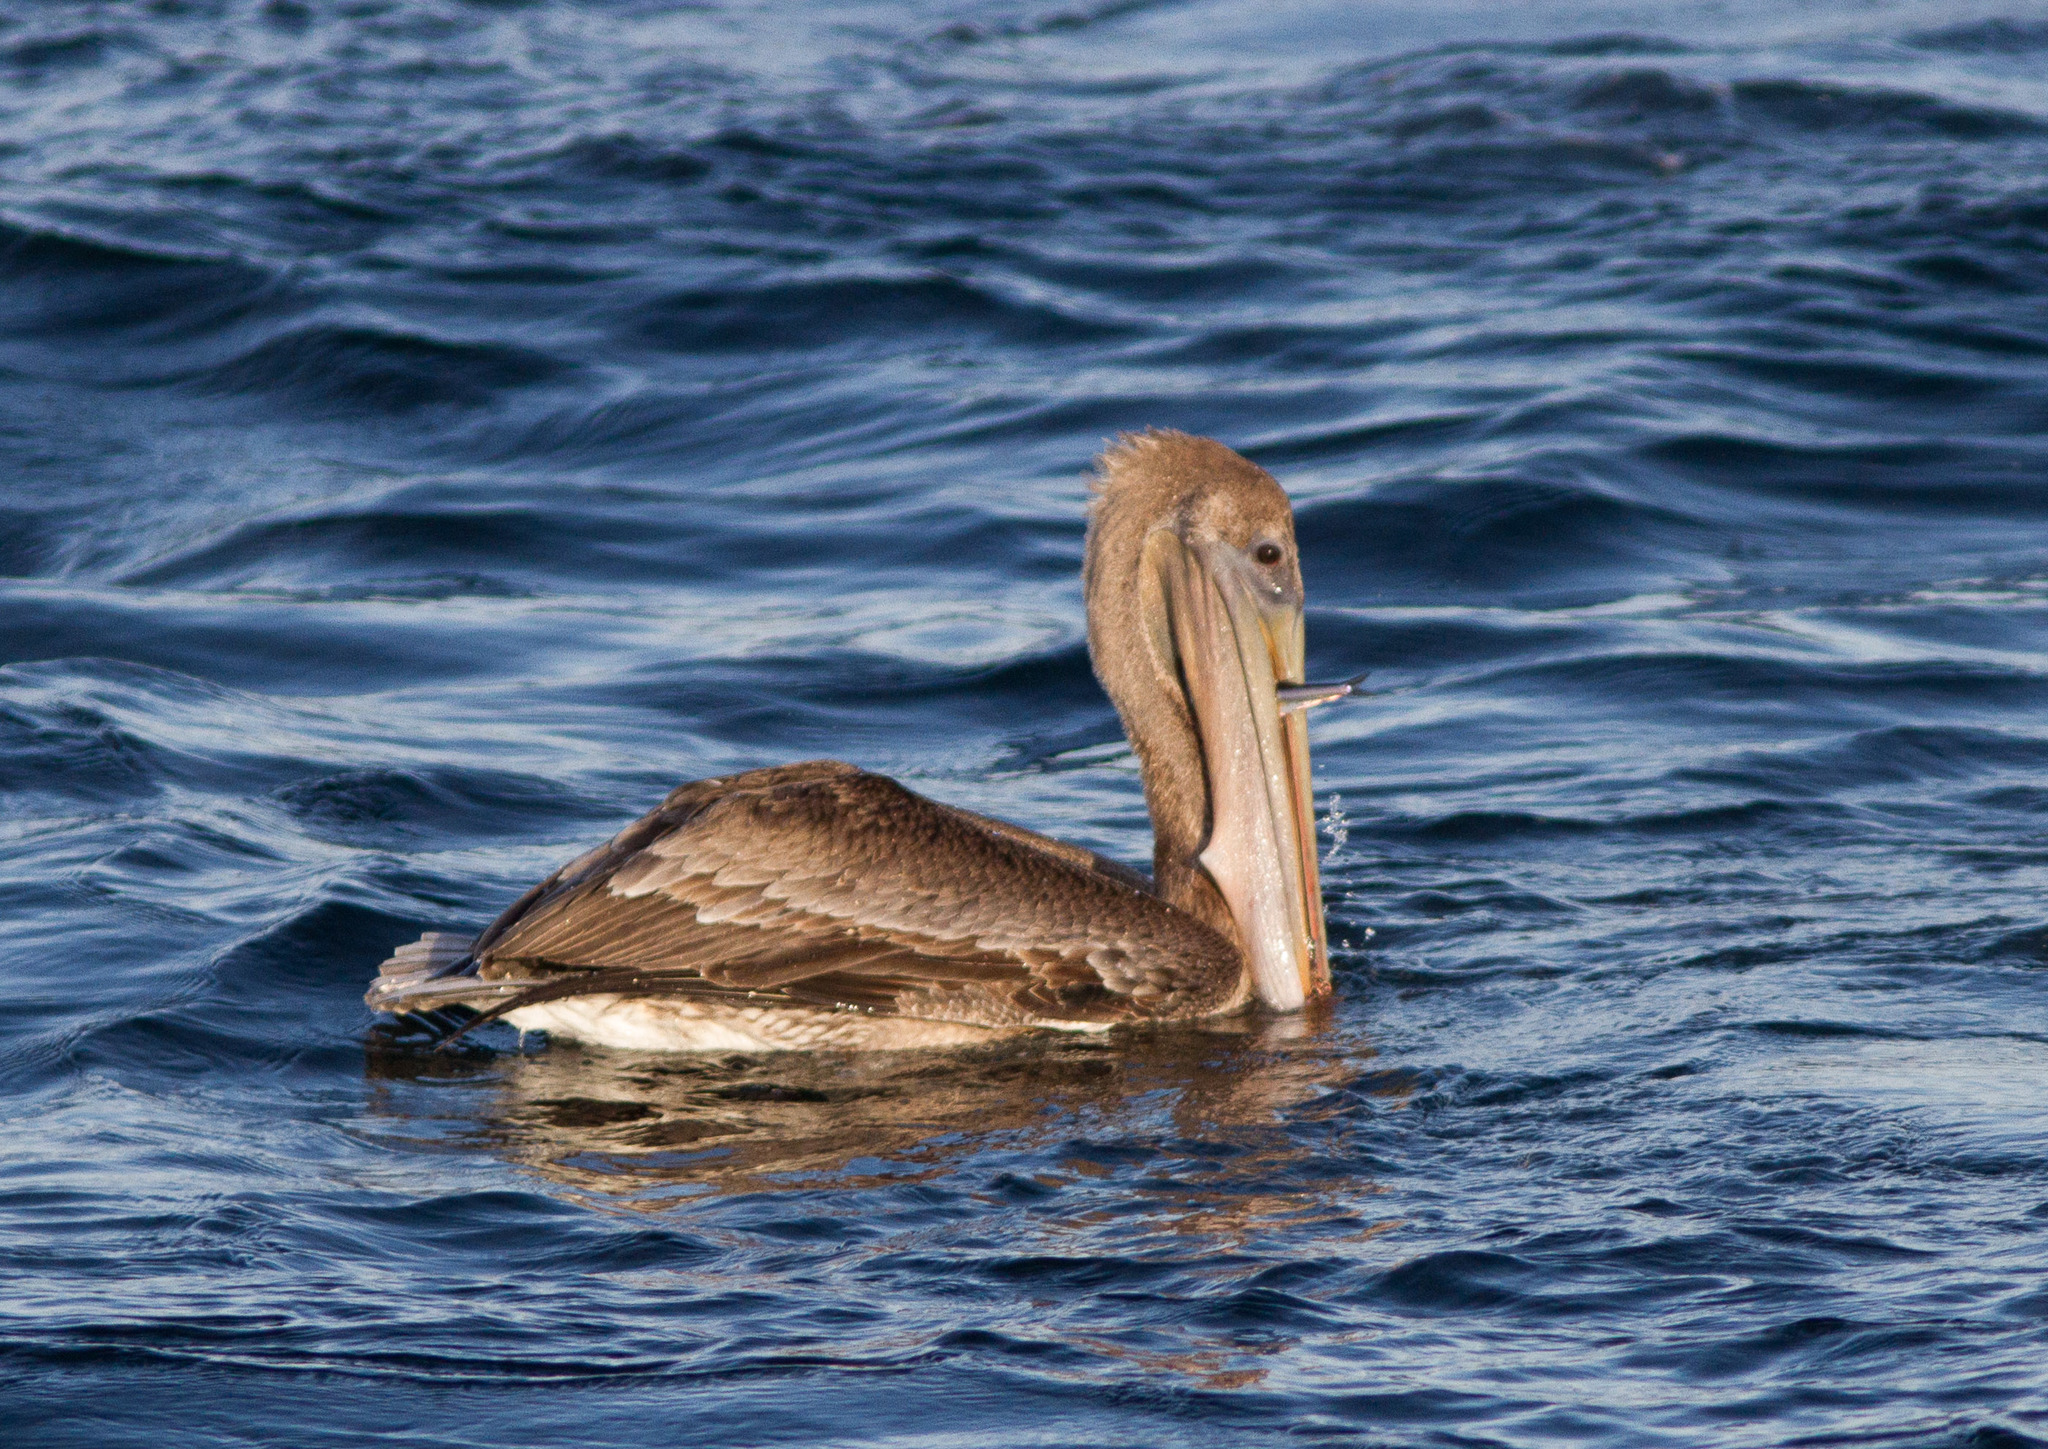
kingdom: Animalia
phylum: Chordata
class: Aves
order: Pelecaniformes
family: Pelecanidae
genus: Pelecanus
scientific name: Pelecanus occidentalis
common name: Brown pelican
